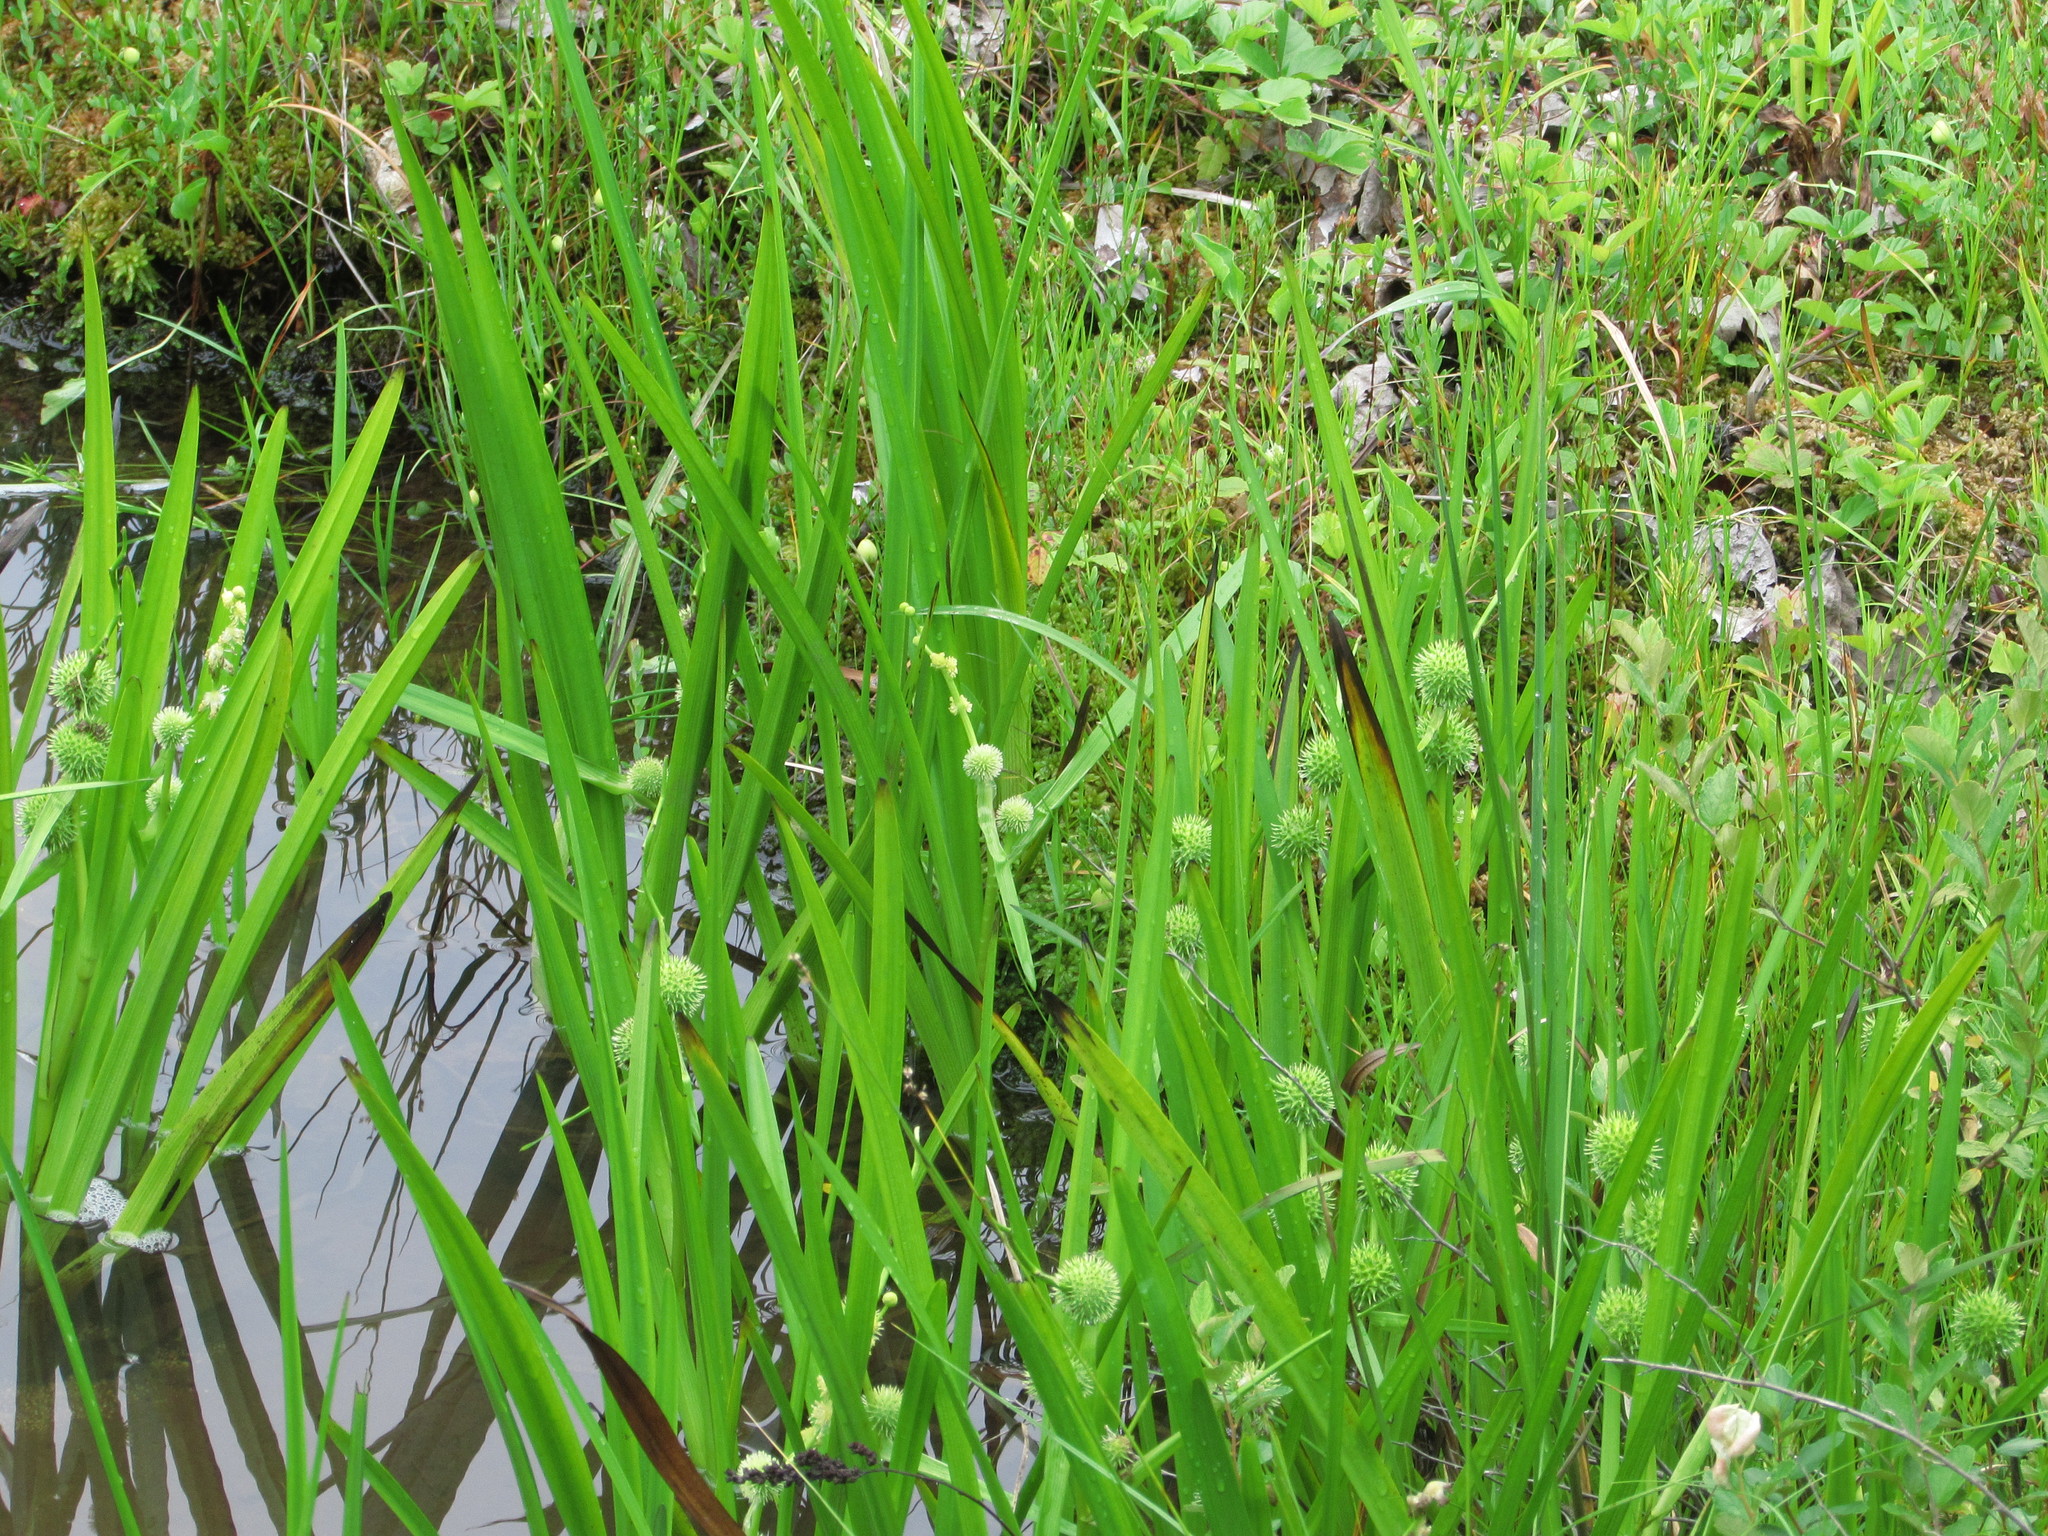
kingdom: Plantae
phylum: Tracheophyta
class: Liliopsida
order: Poales
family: Typhaceae
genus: Sparganium
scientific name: Sparganium americanum
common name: American burreed
